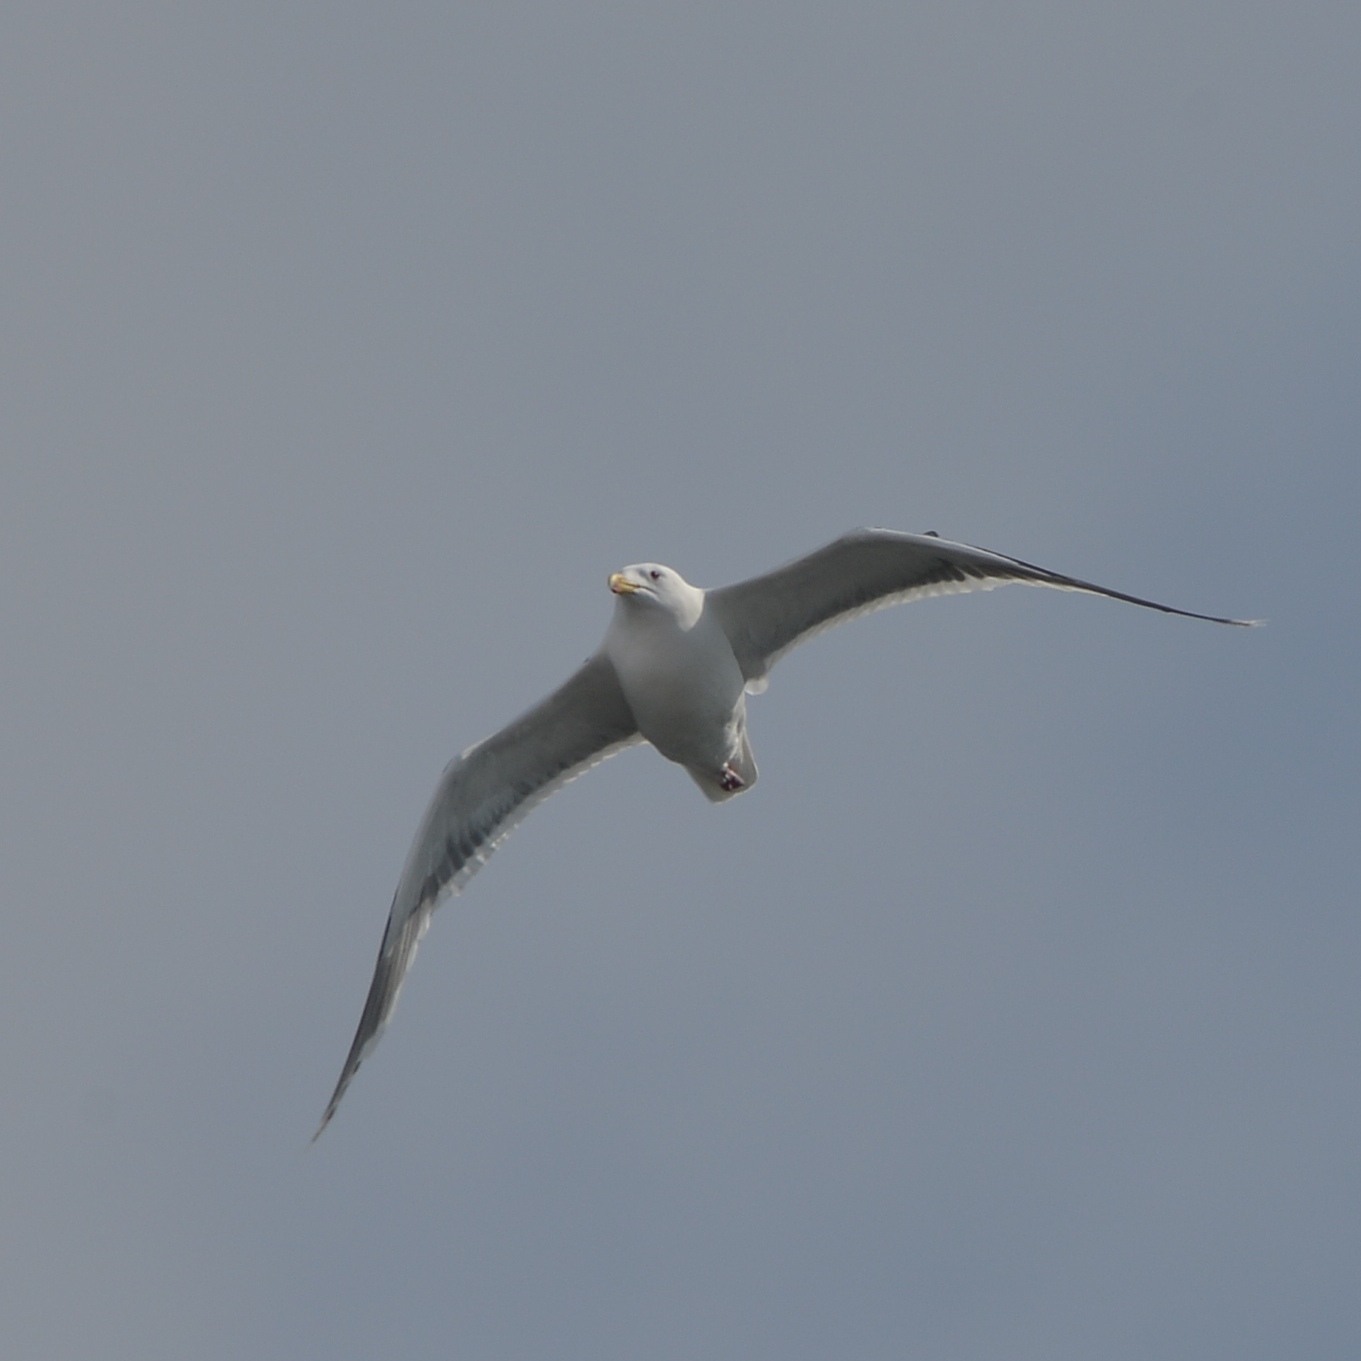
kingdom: Animalia
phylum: Chordata
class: Aves
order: Charadriiformes
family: Laridae
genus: Larus
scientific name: Larus schistisagus
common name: Slaty-backed gull
